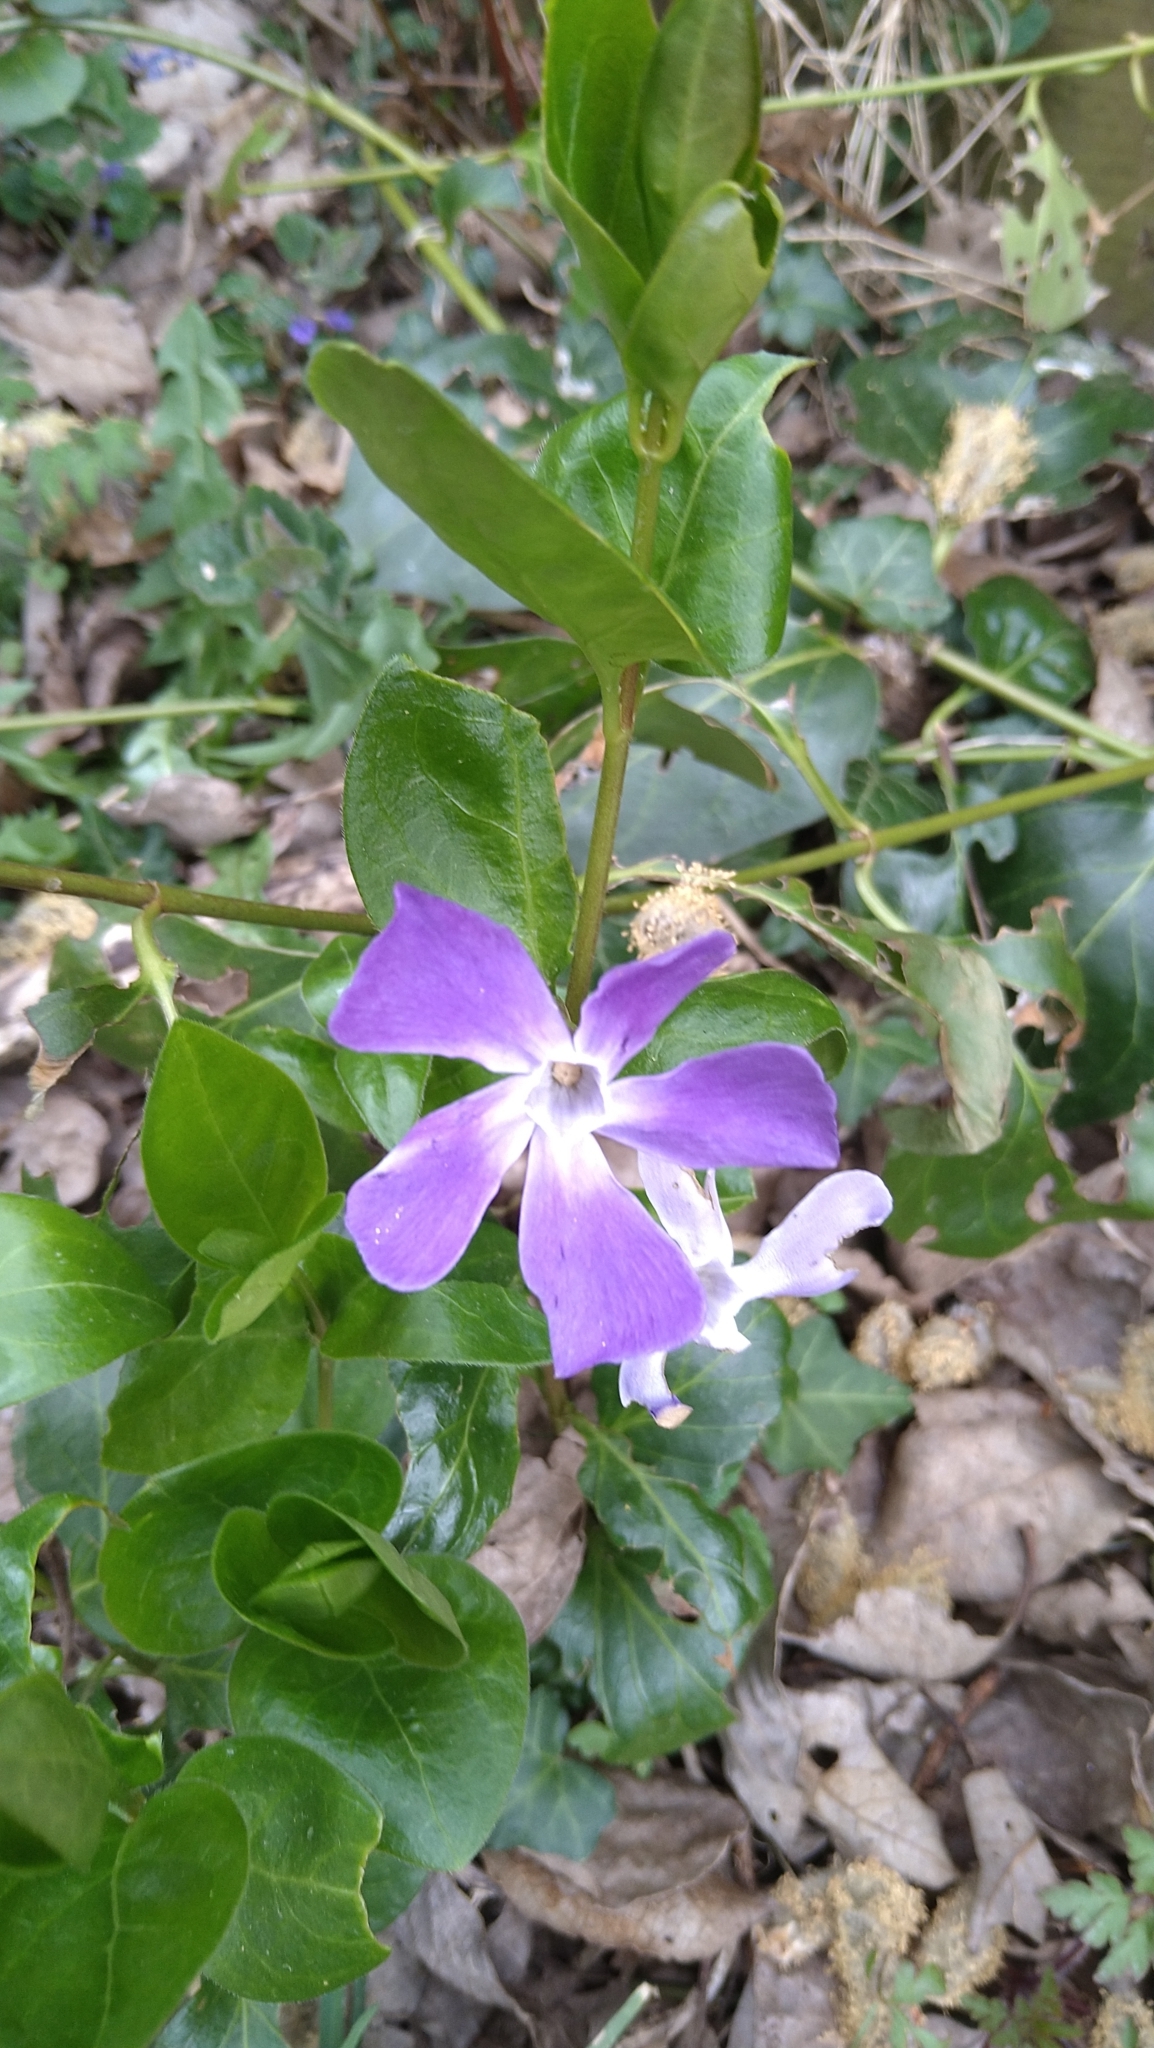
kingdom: Plantae
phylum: Tracheophyta
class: Magnoliopsida
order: Gentianales
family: Apocynaceae
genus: Vinca
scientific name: Vinca major
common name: Greater periwinkle
